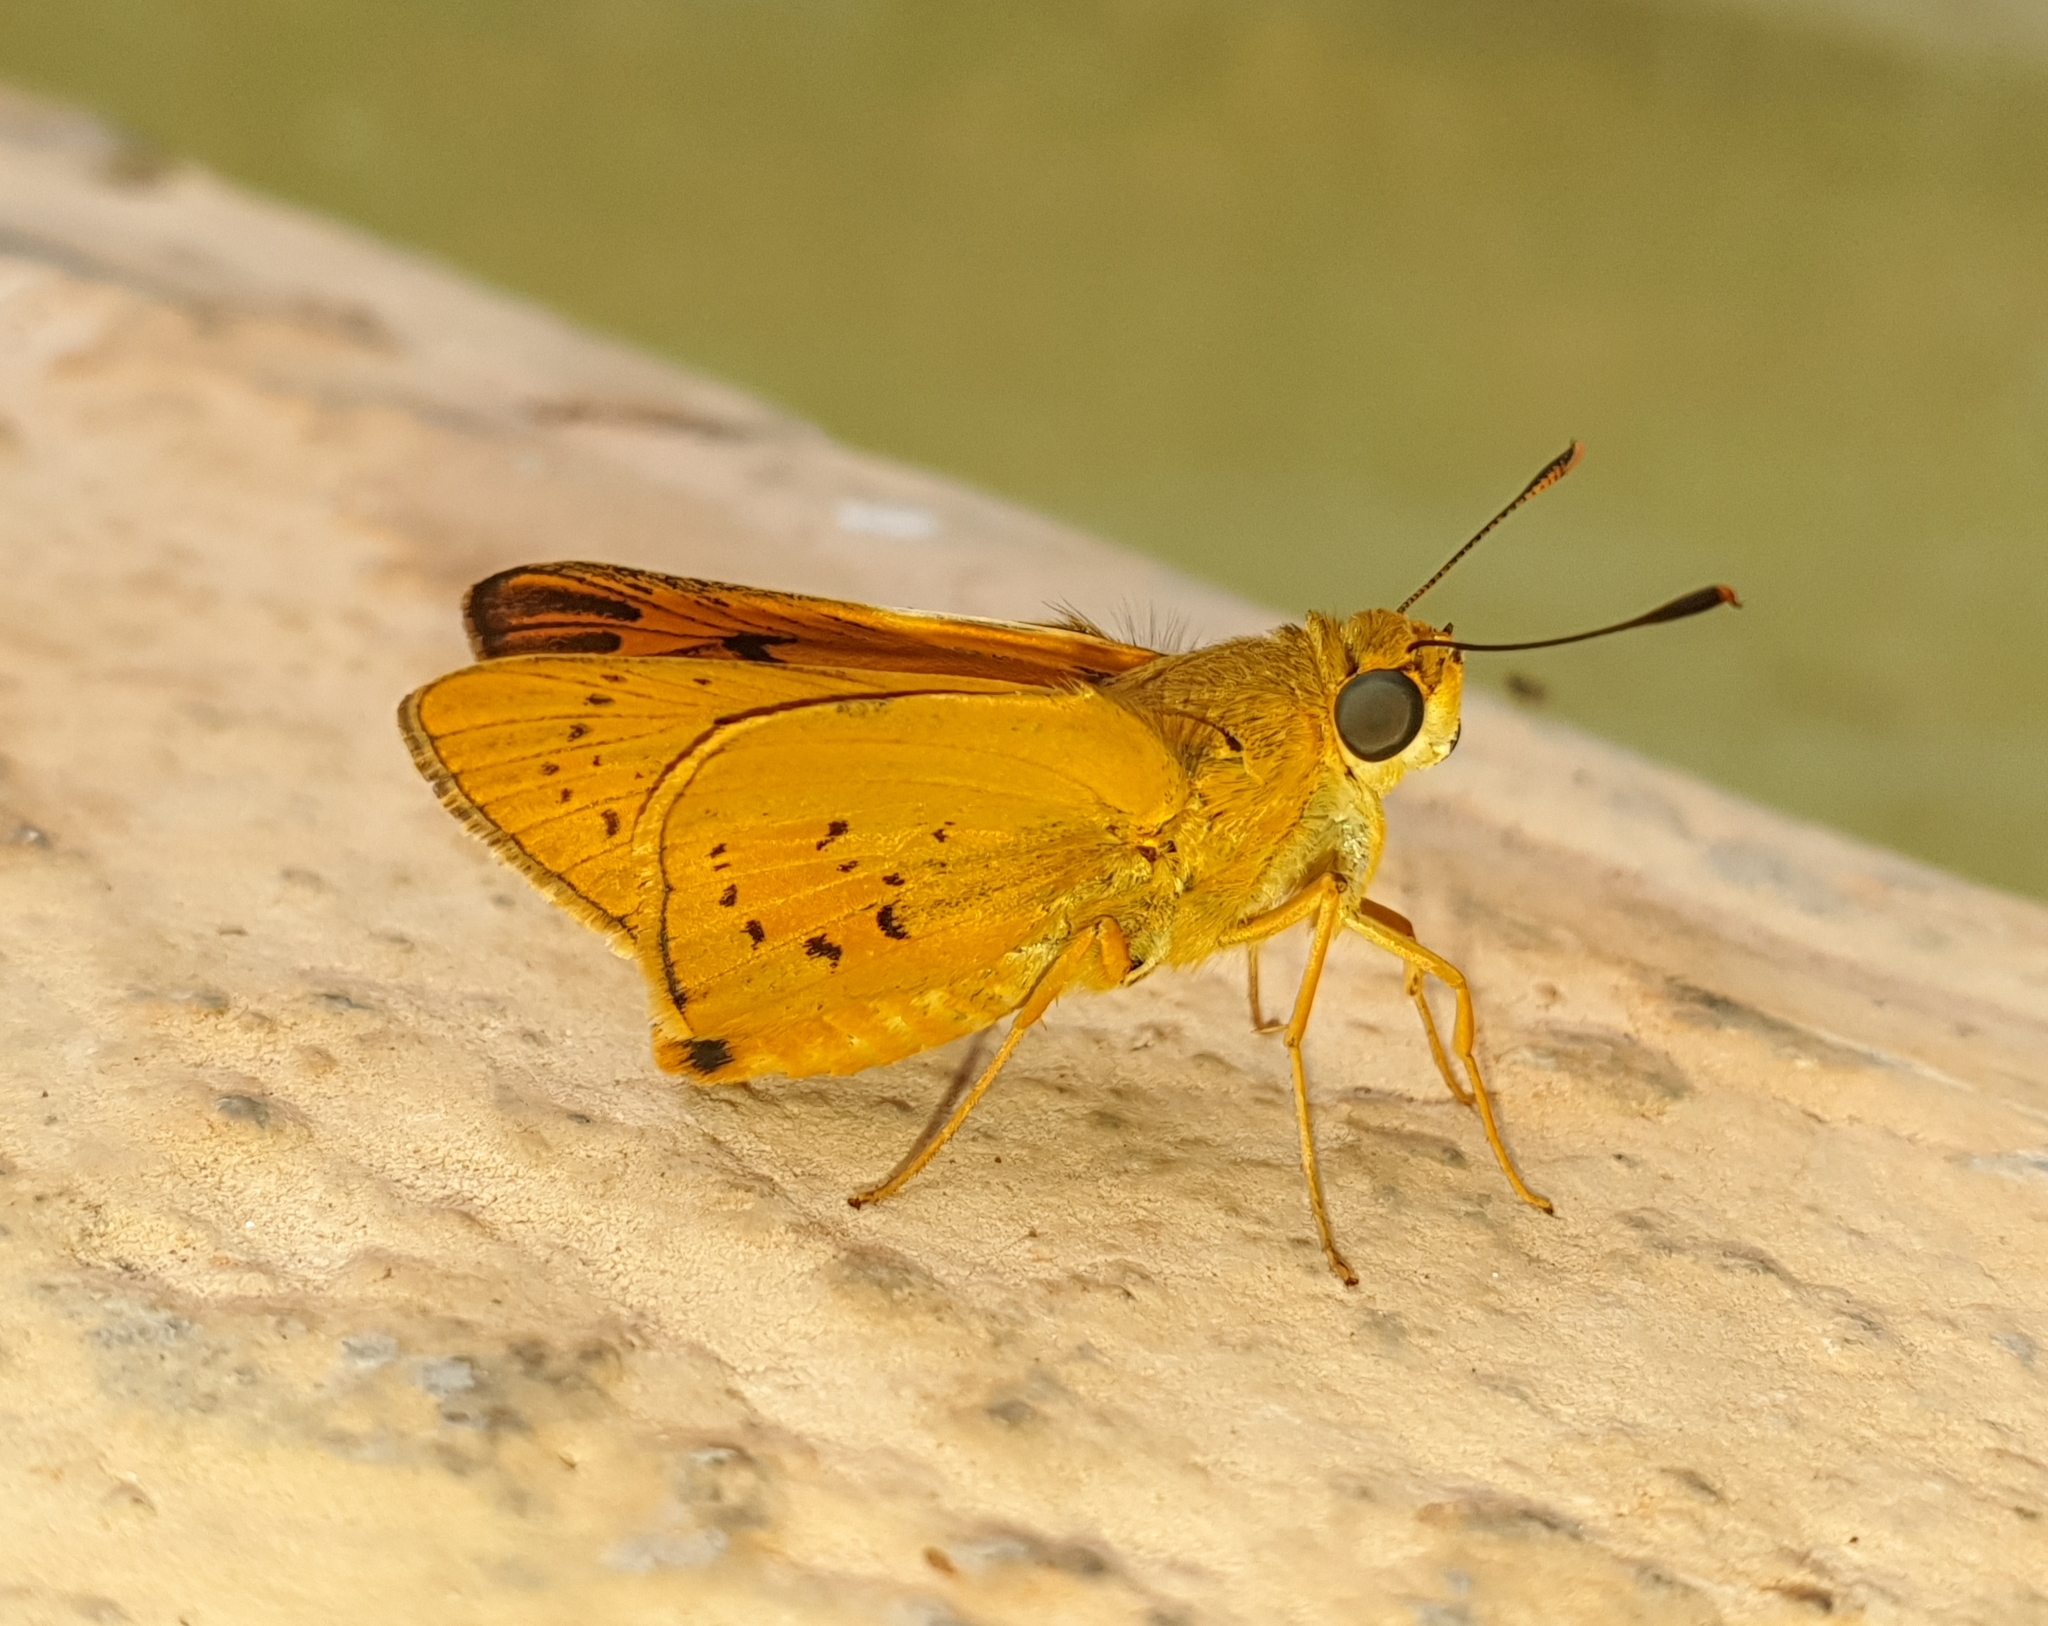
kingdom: Animalia
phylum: Arthropoda
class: Insecta
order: Lepidoptera
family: Hesperiidae
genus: Cephrenes
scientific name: Cephrenes trichopepla
